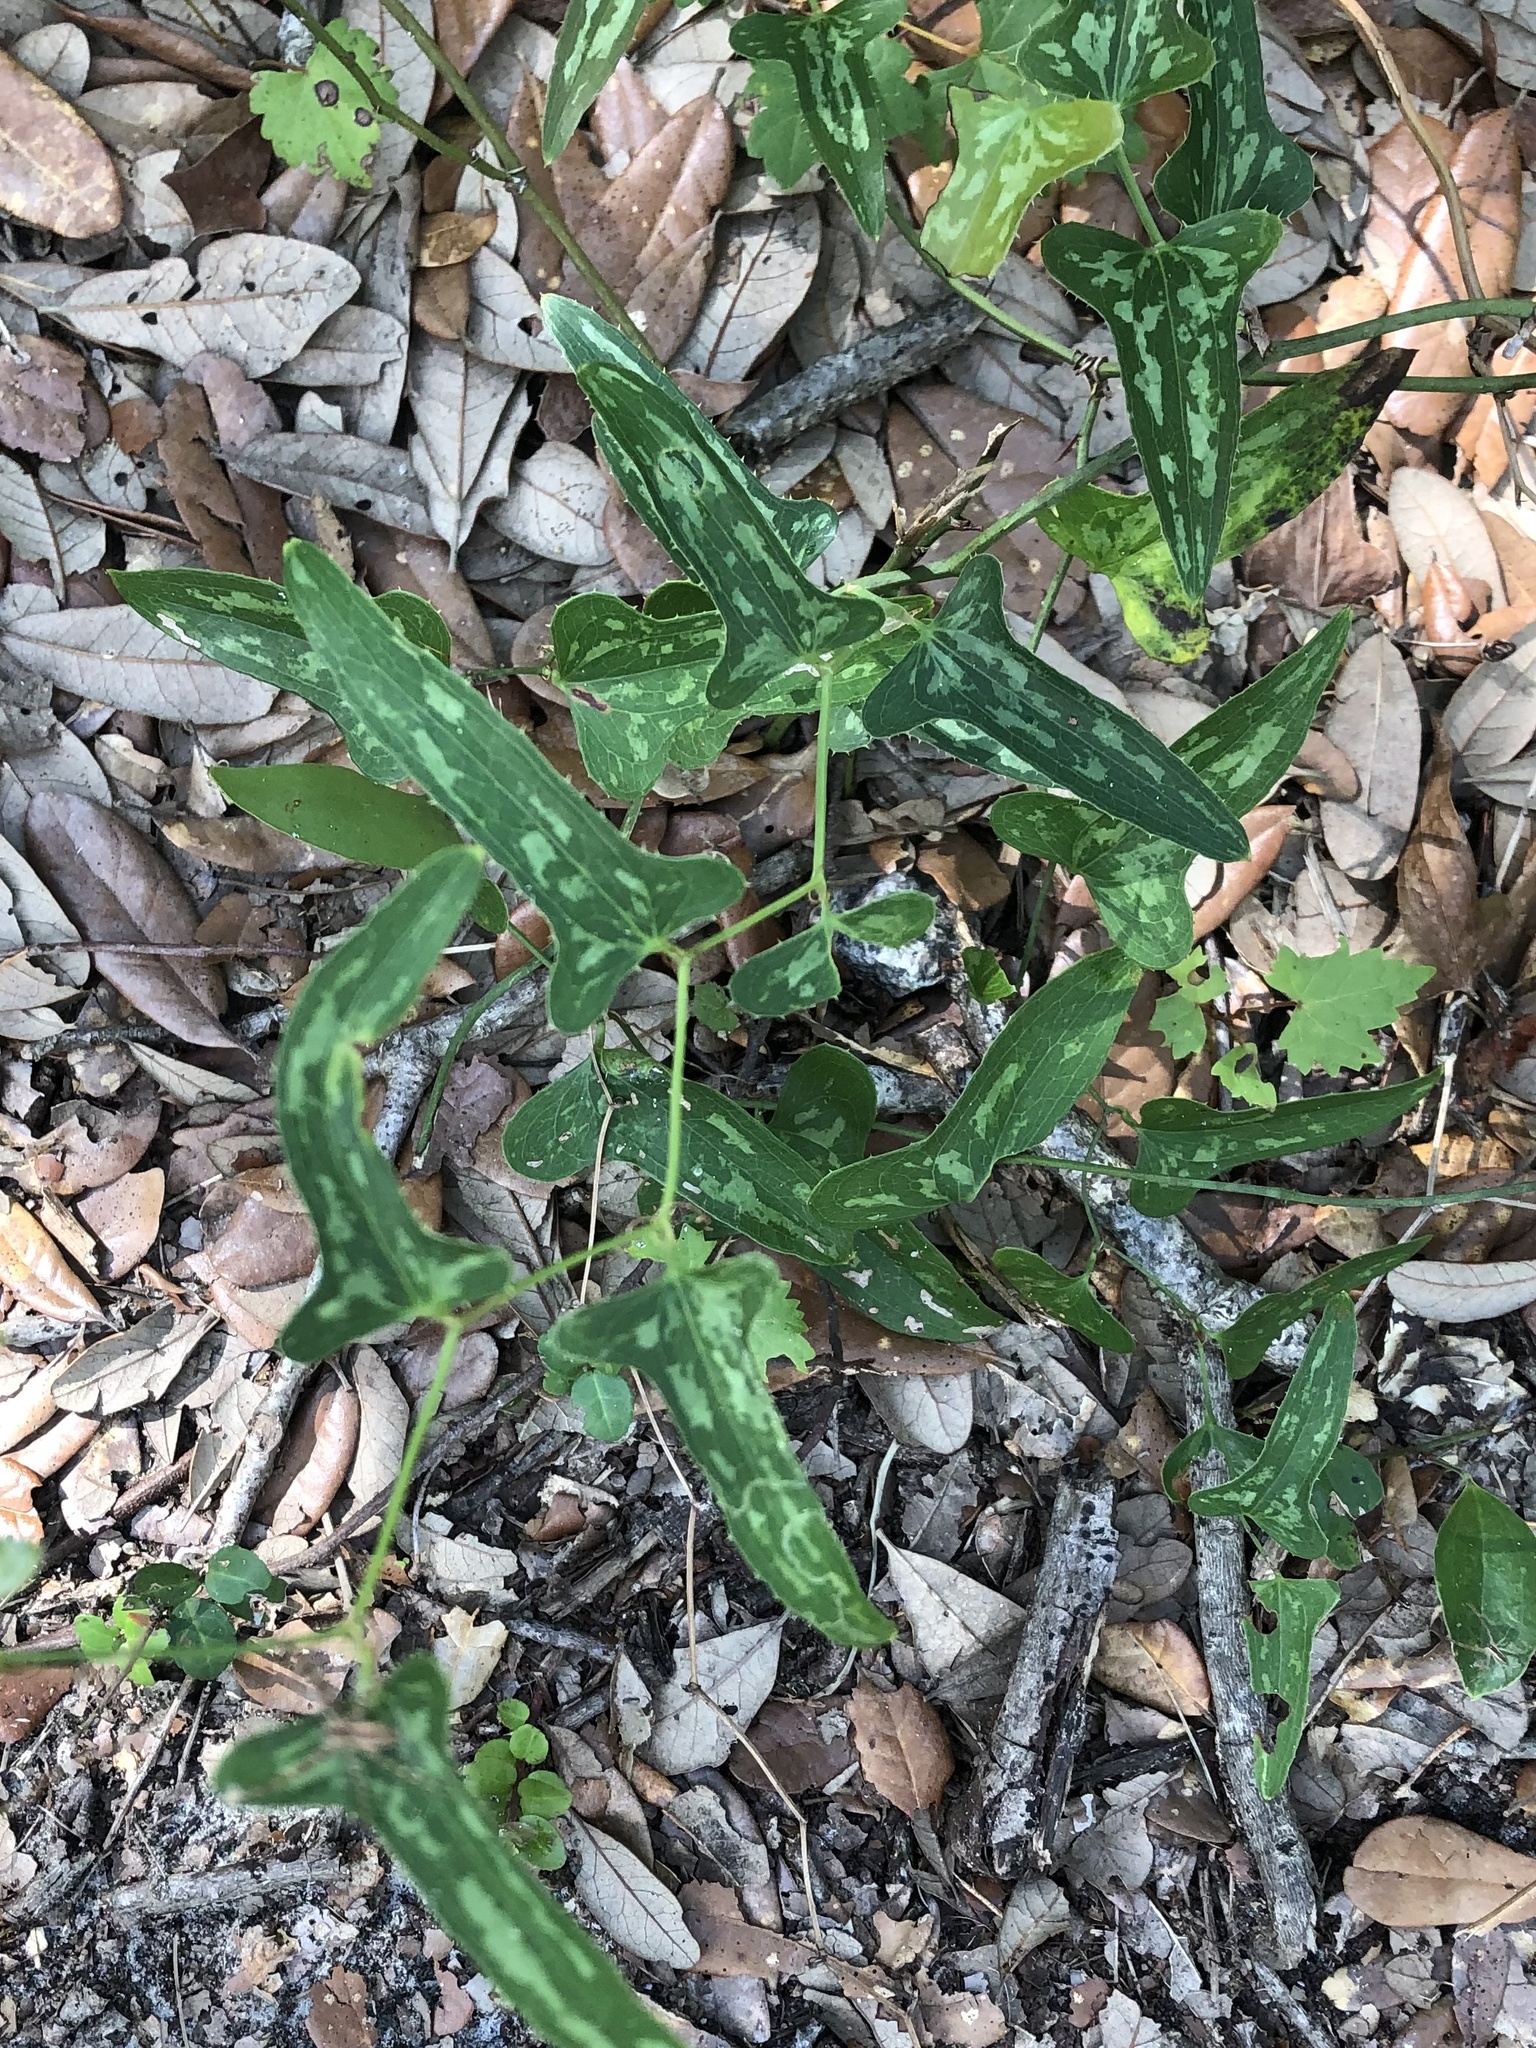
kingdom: Plantae
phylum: Tracheophyta
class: Liliopsida
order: Liliales
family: Smilacaceae
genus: Smilax
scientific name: Smilax bona-nox
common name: Catbrier
